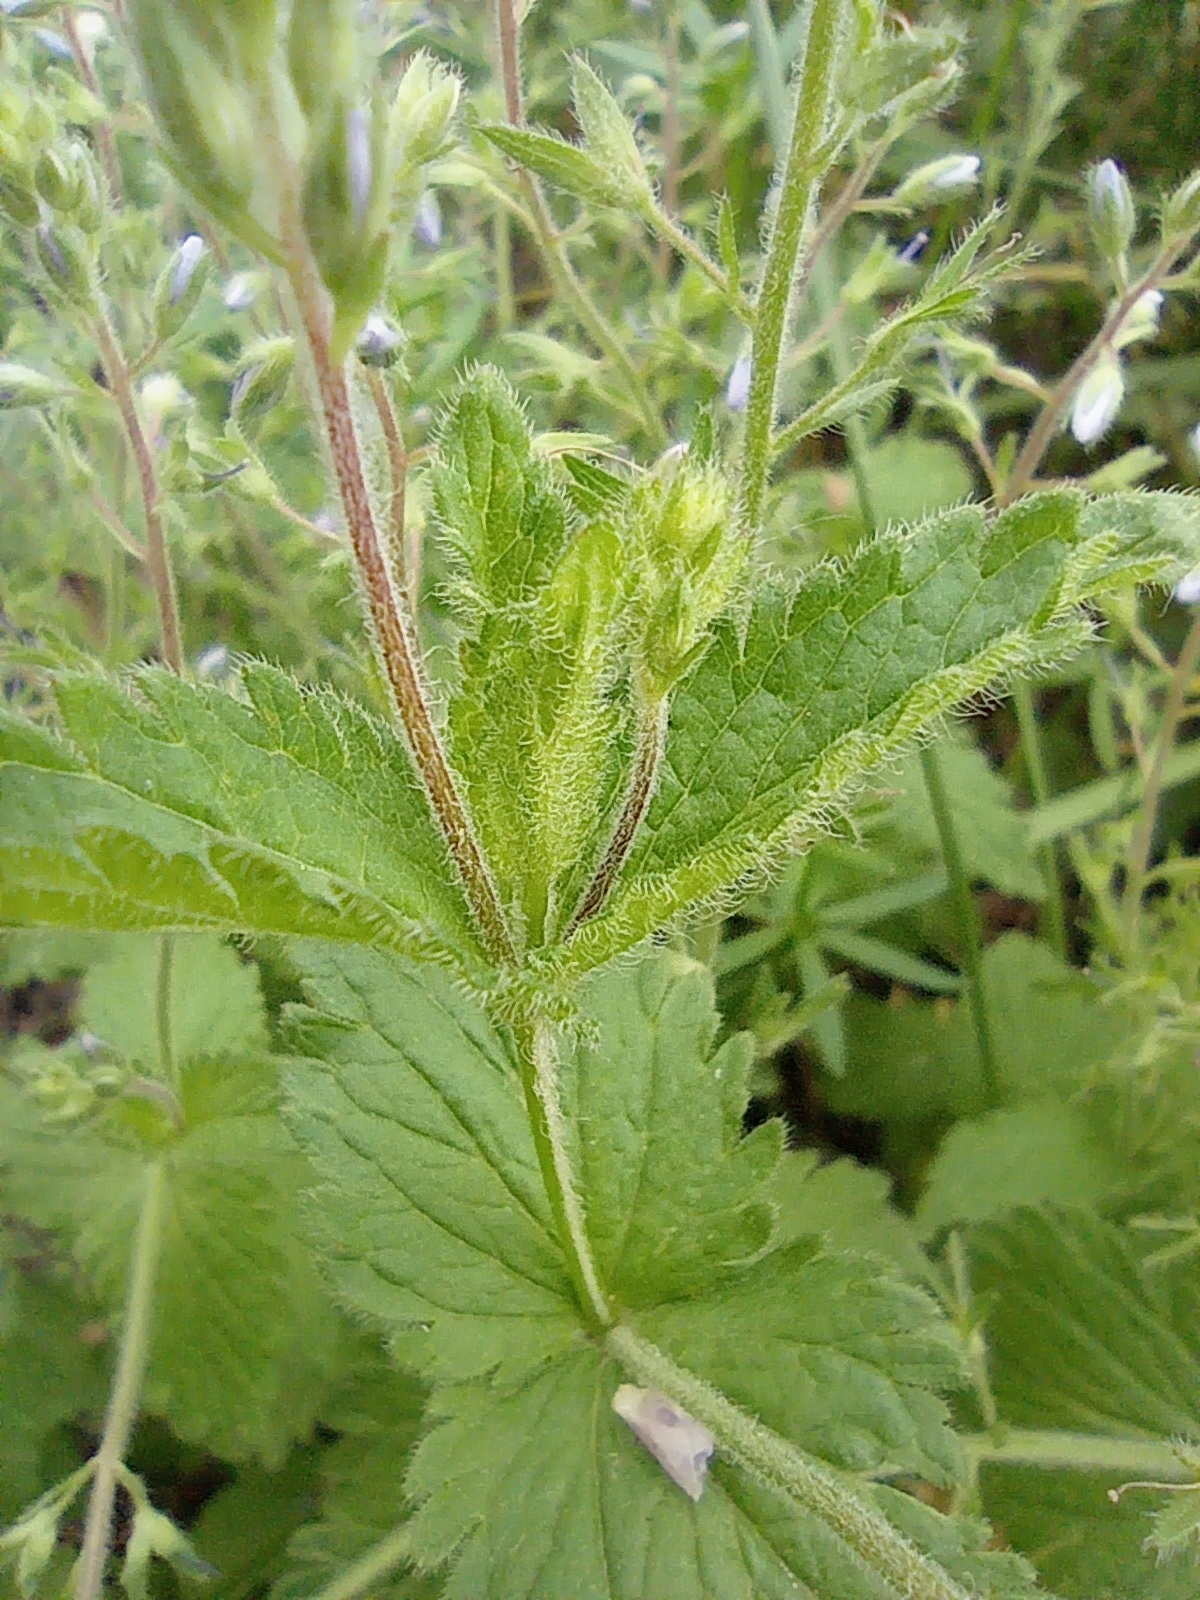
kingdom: Plantae
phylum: Tracheophyta
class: Magnoliopsida
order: Lamiales
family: Plantaginaceae
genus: Veronica
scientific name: Veronica chamaedrys
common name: Germander speedwell
